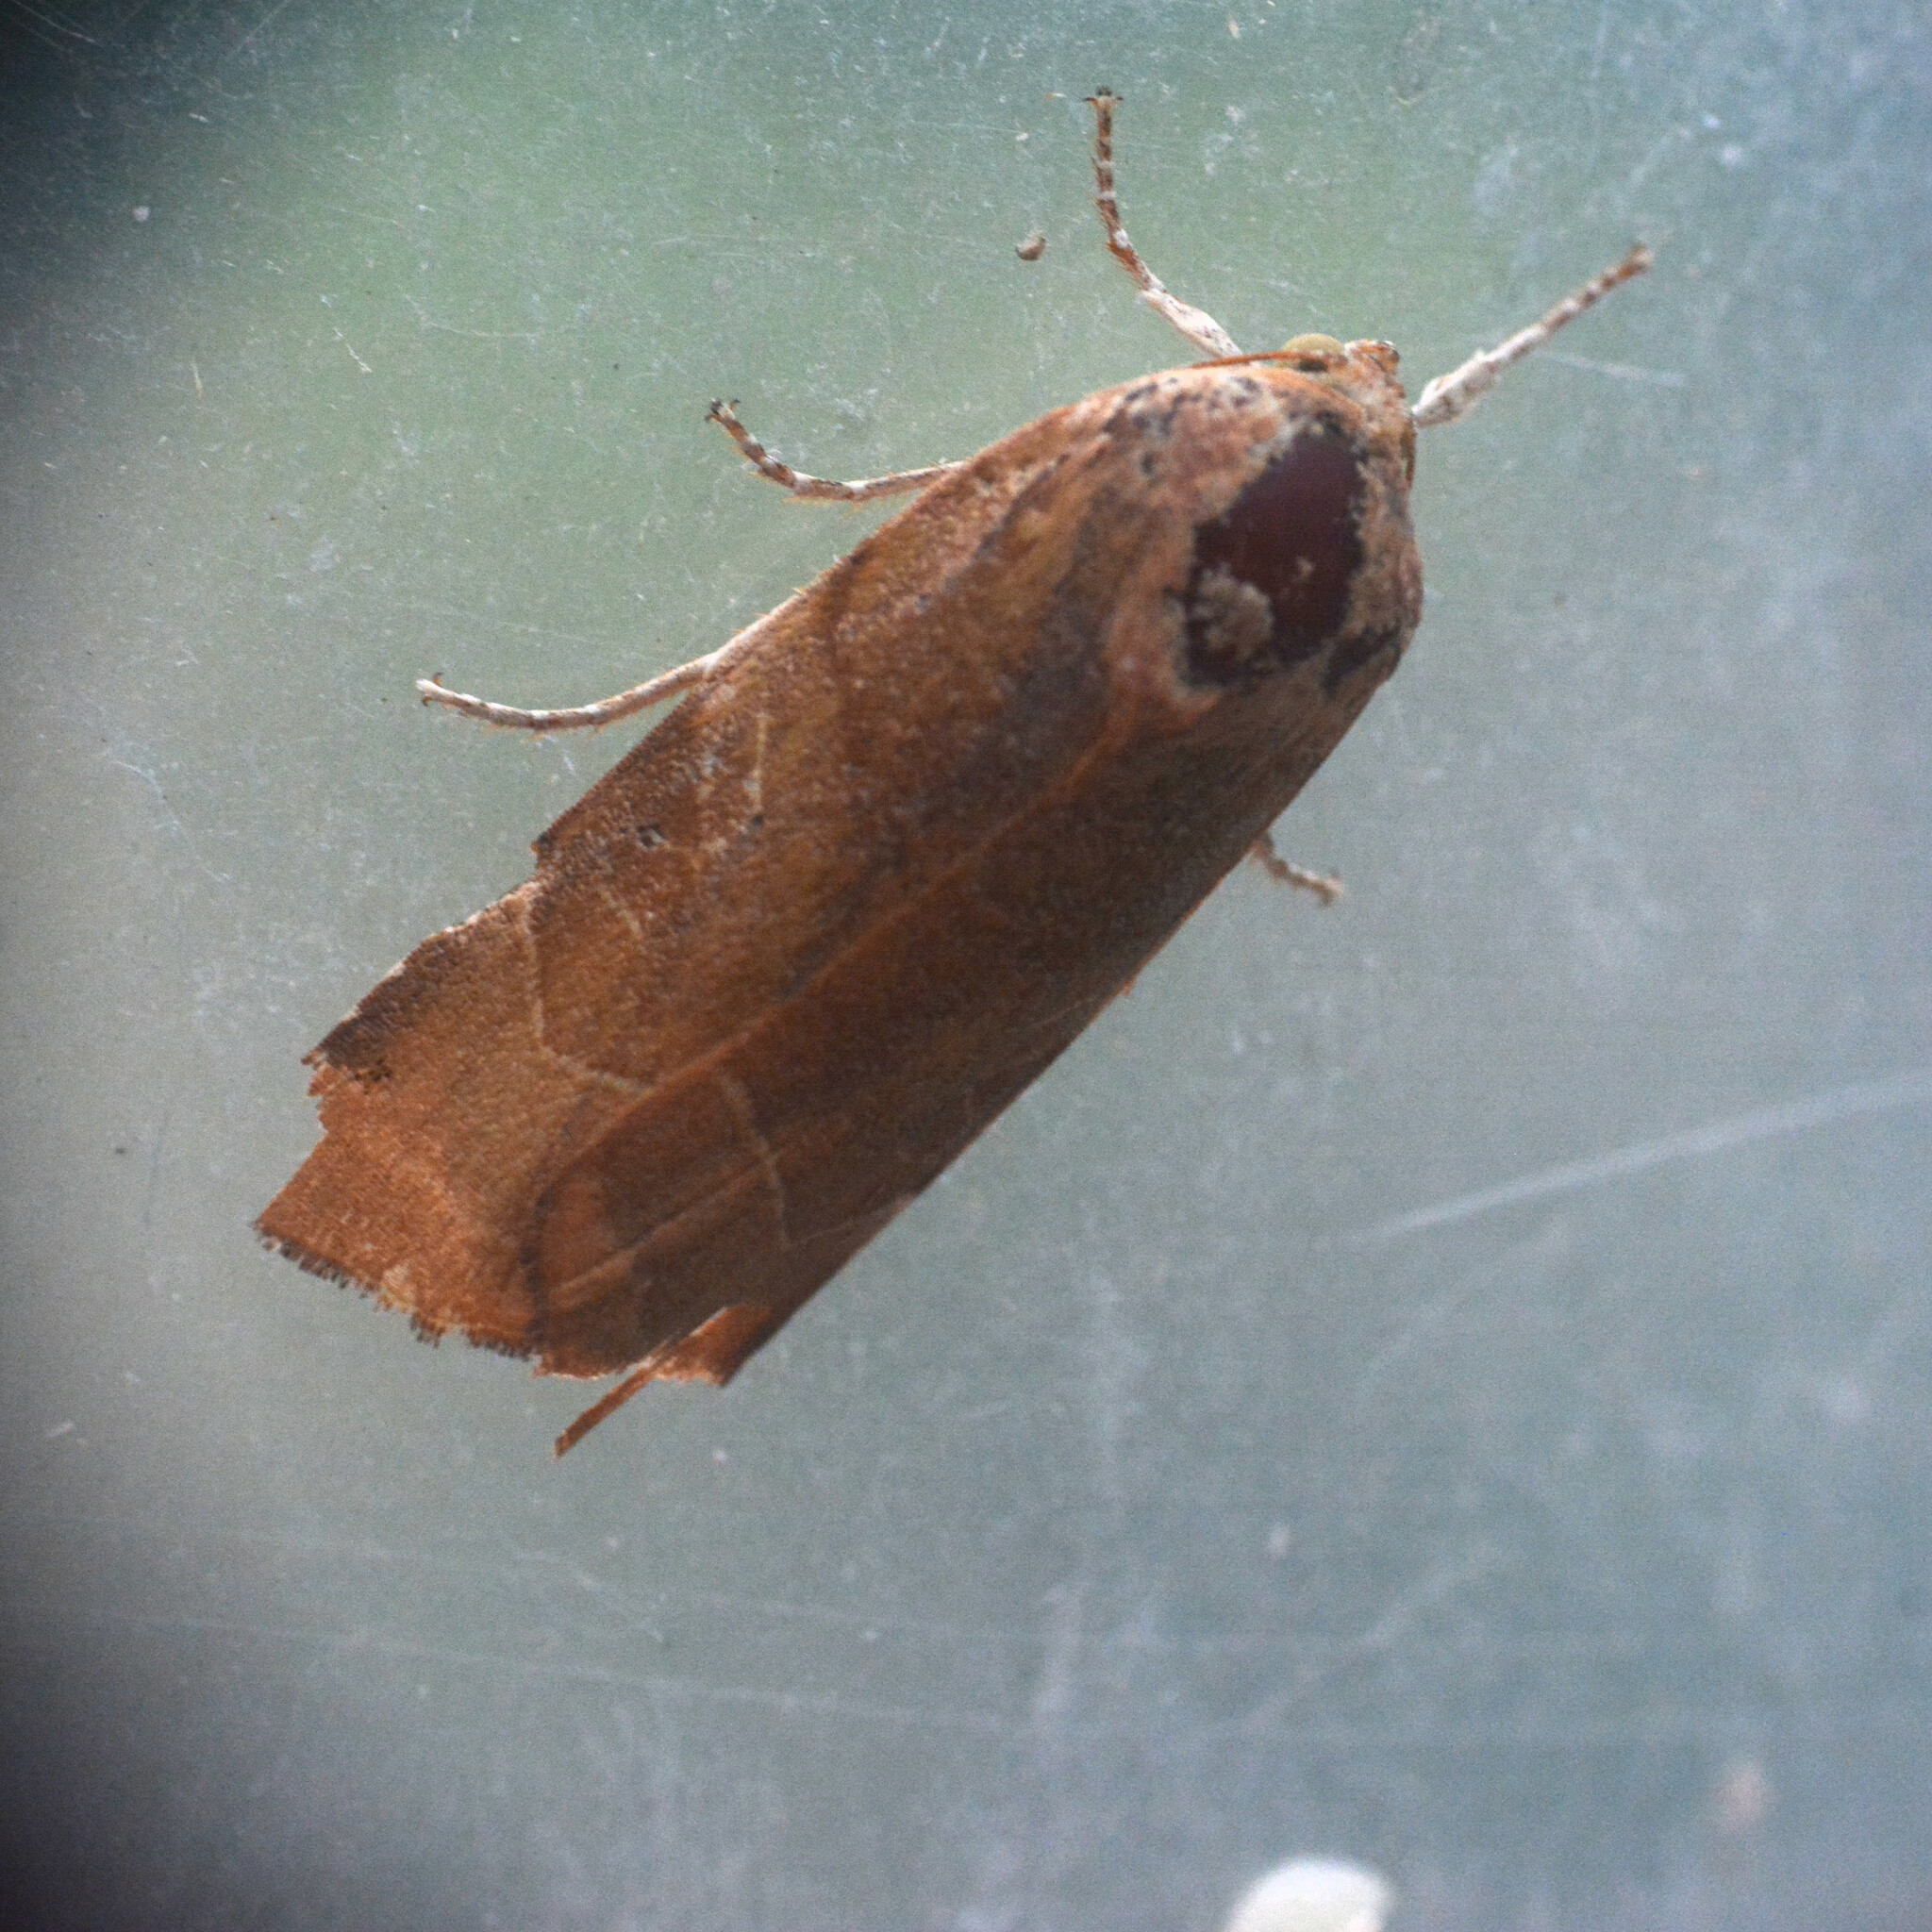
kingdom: Animalia
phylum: Arthropoda
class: Insecta
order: Lepidoptera
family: Noctuidae
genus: Noctua
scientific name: Noctua fimbriata
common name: Broad-bordered yellow underwing
